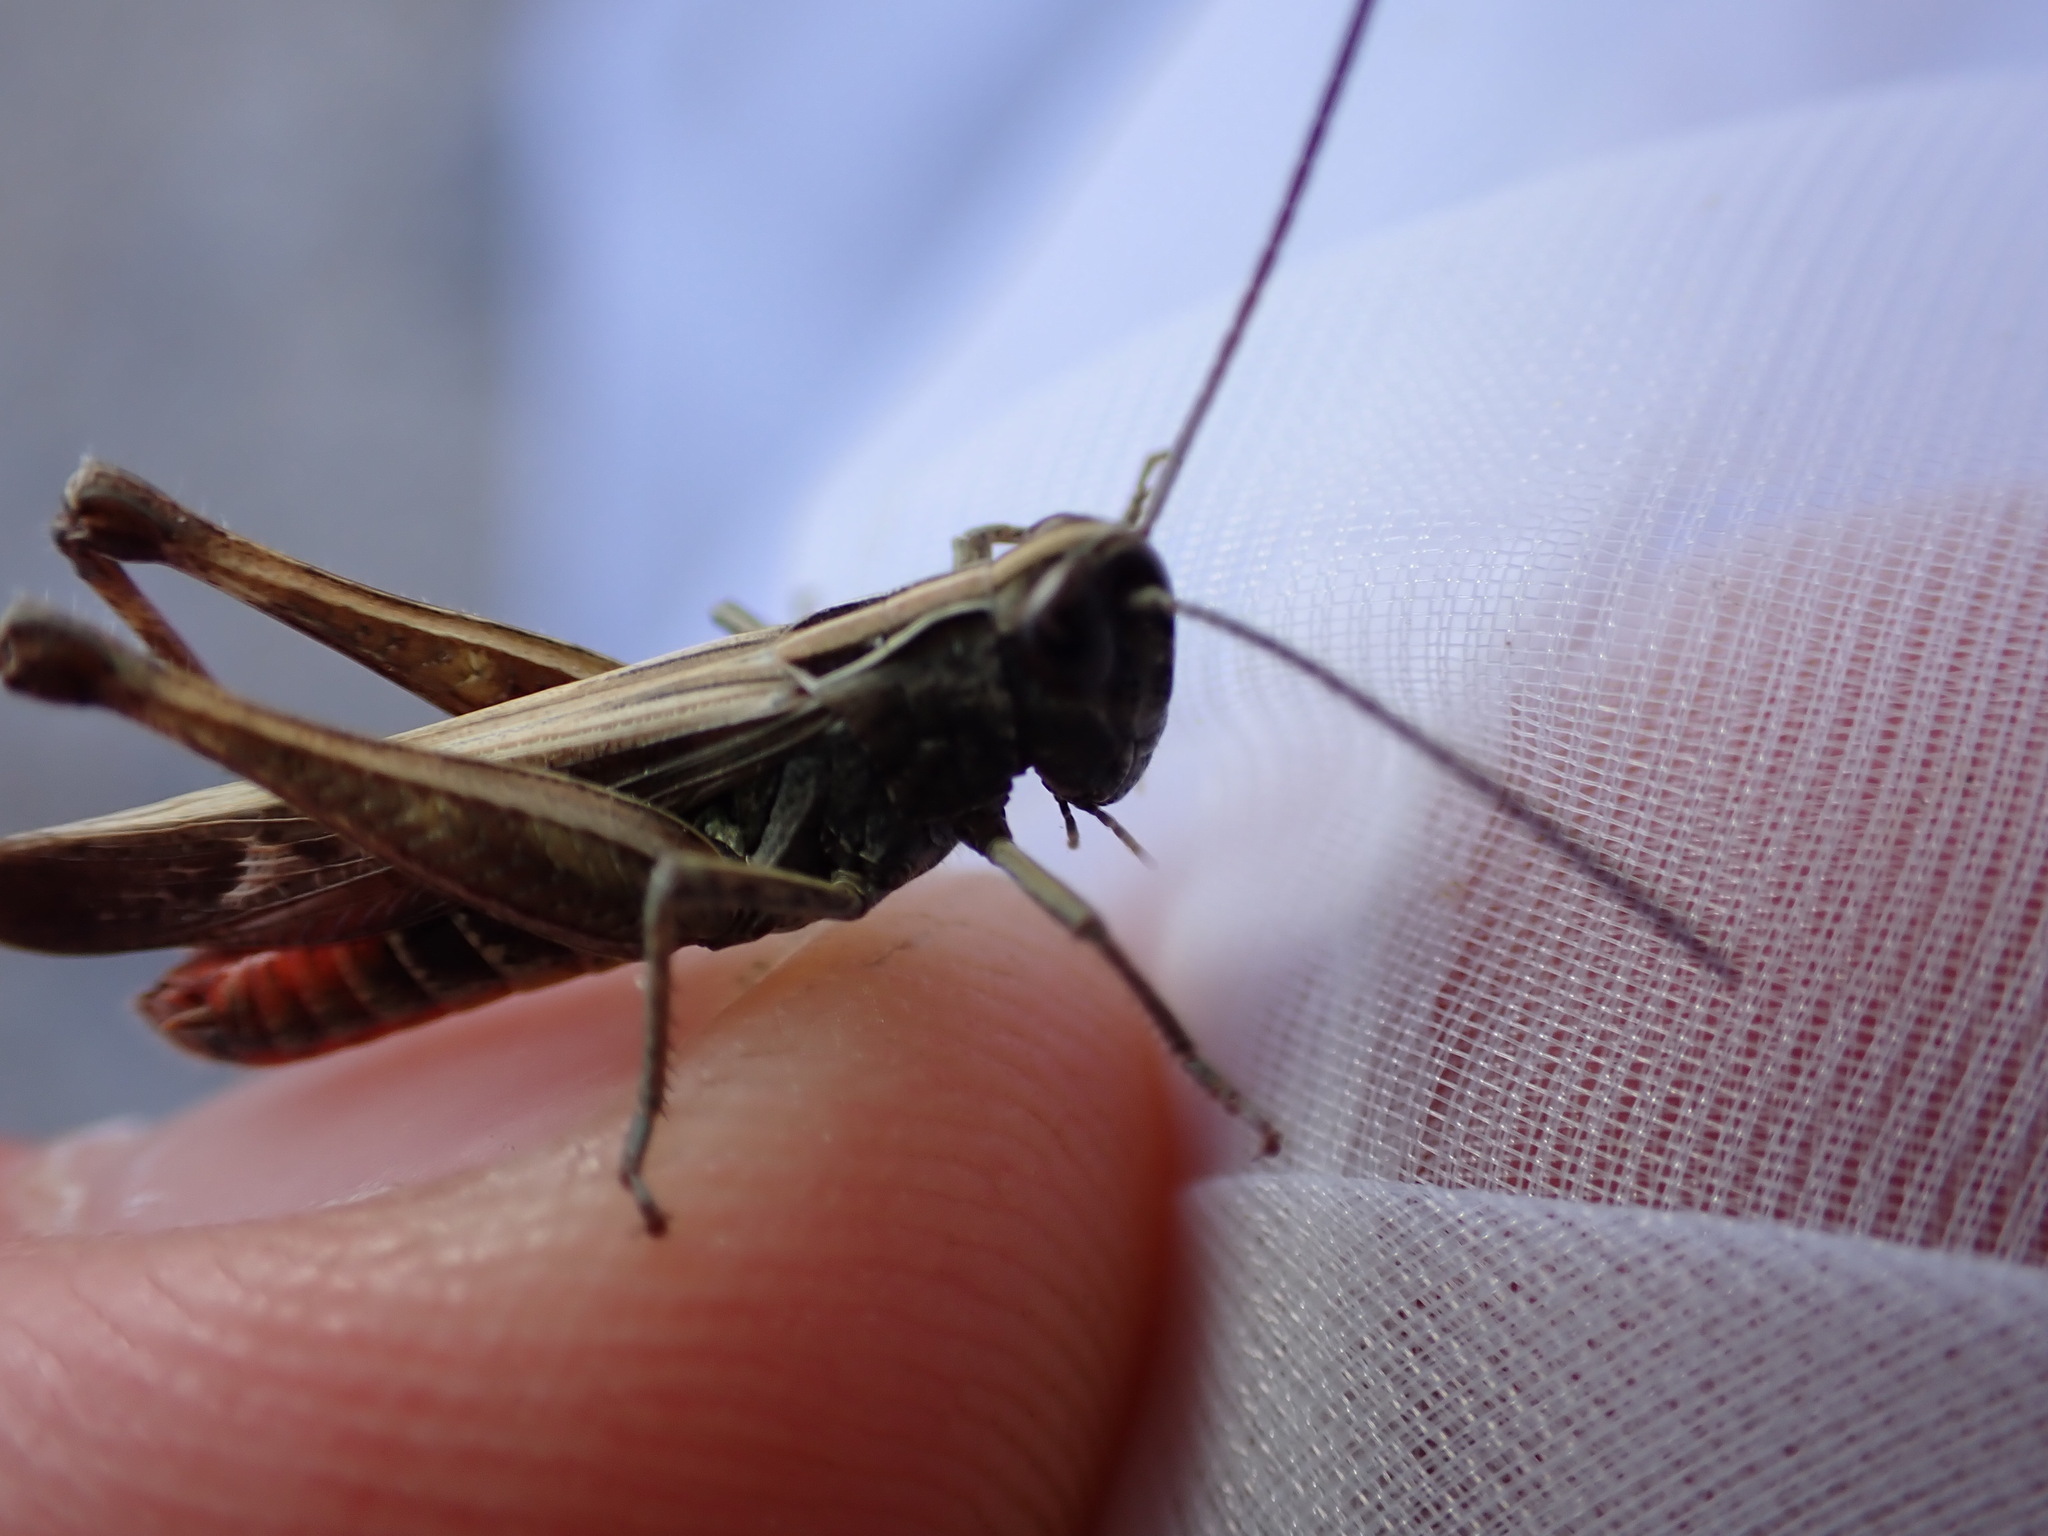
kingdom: Animalia
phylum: Arthropoda
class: Insecta
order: Orthoptera
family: Acrididae
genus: Omocestus
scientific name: Omocestus rufipes
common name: Woodland grasshopper
